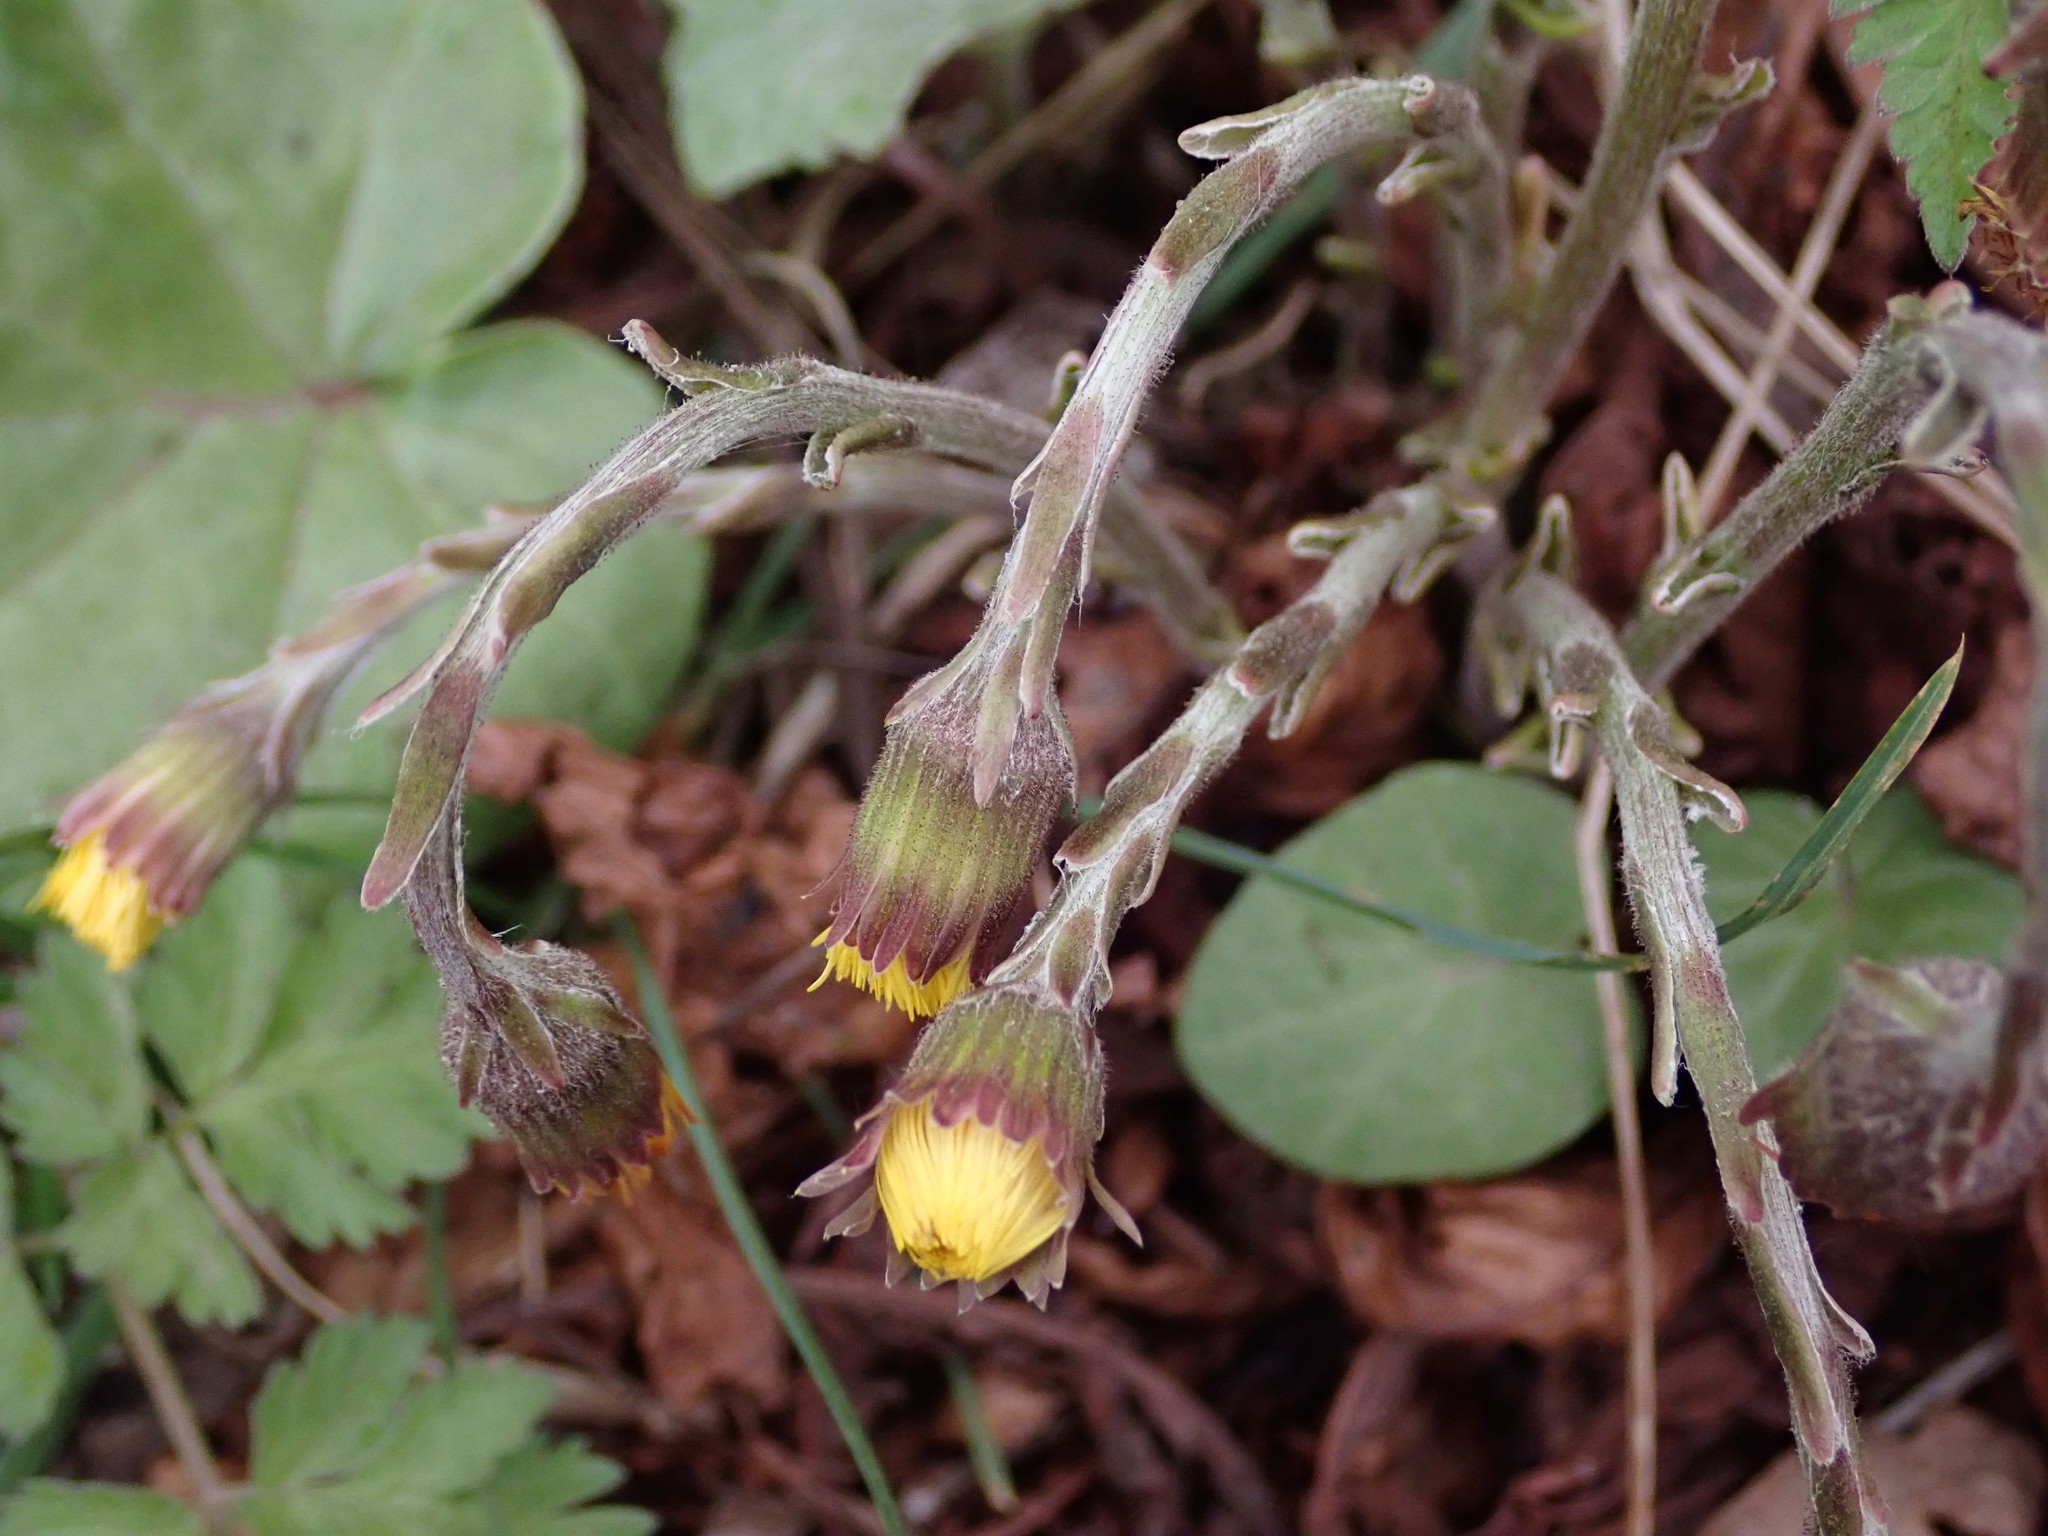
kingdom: Plantae
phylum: Tracheophyta
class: Magnoliopsida
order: Asterales
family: Asteraceae
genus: Tussilago
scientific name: Tussilago farfara
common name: Coltsfoot
